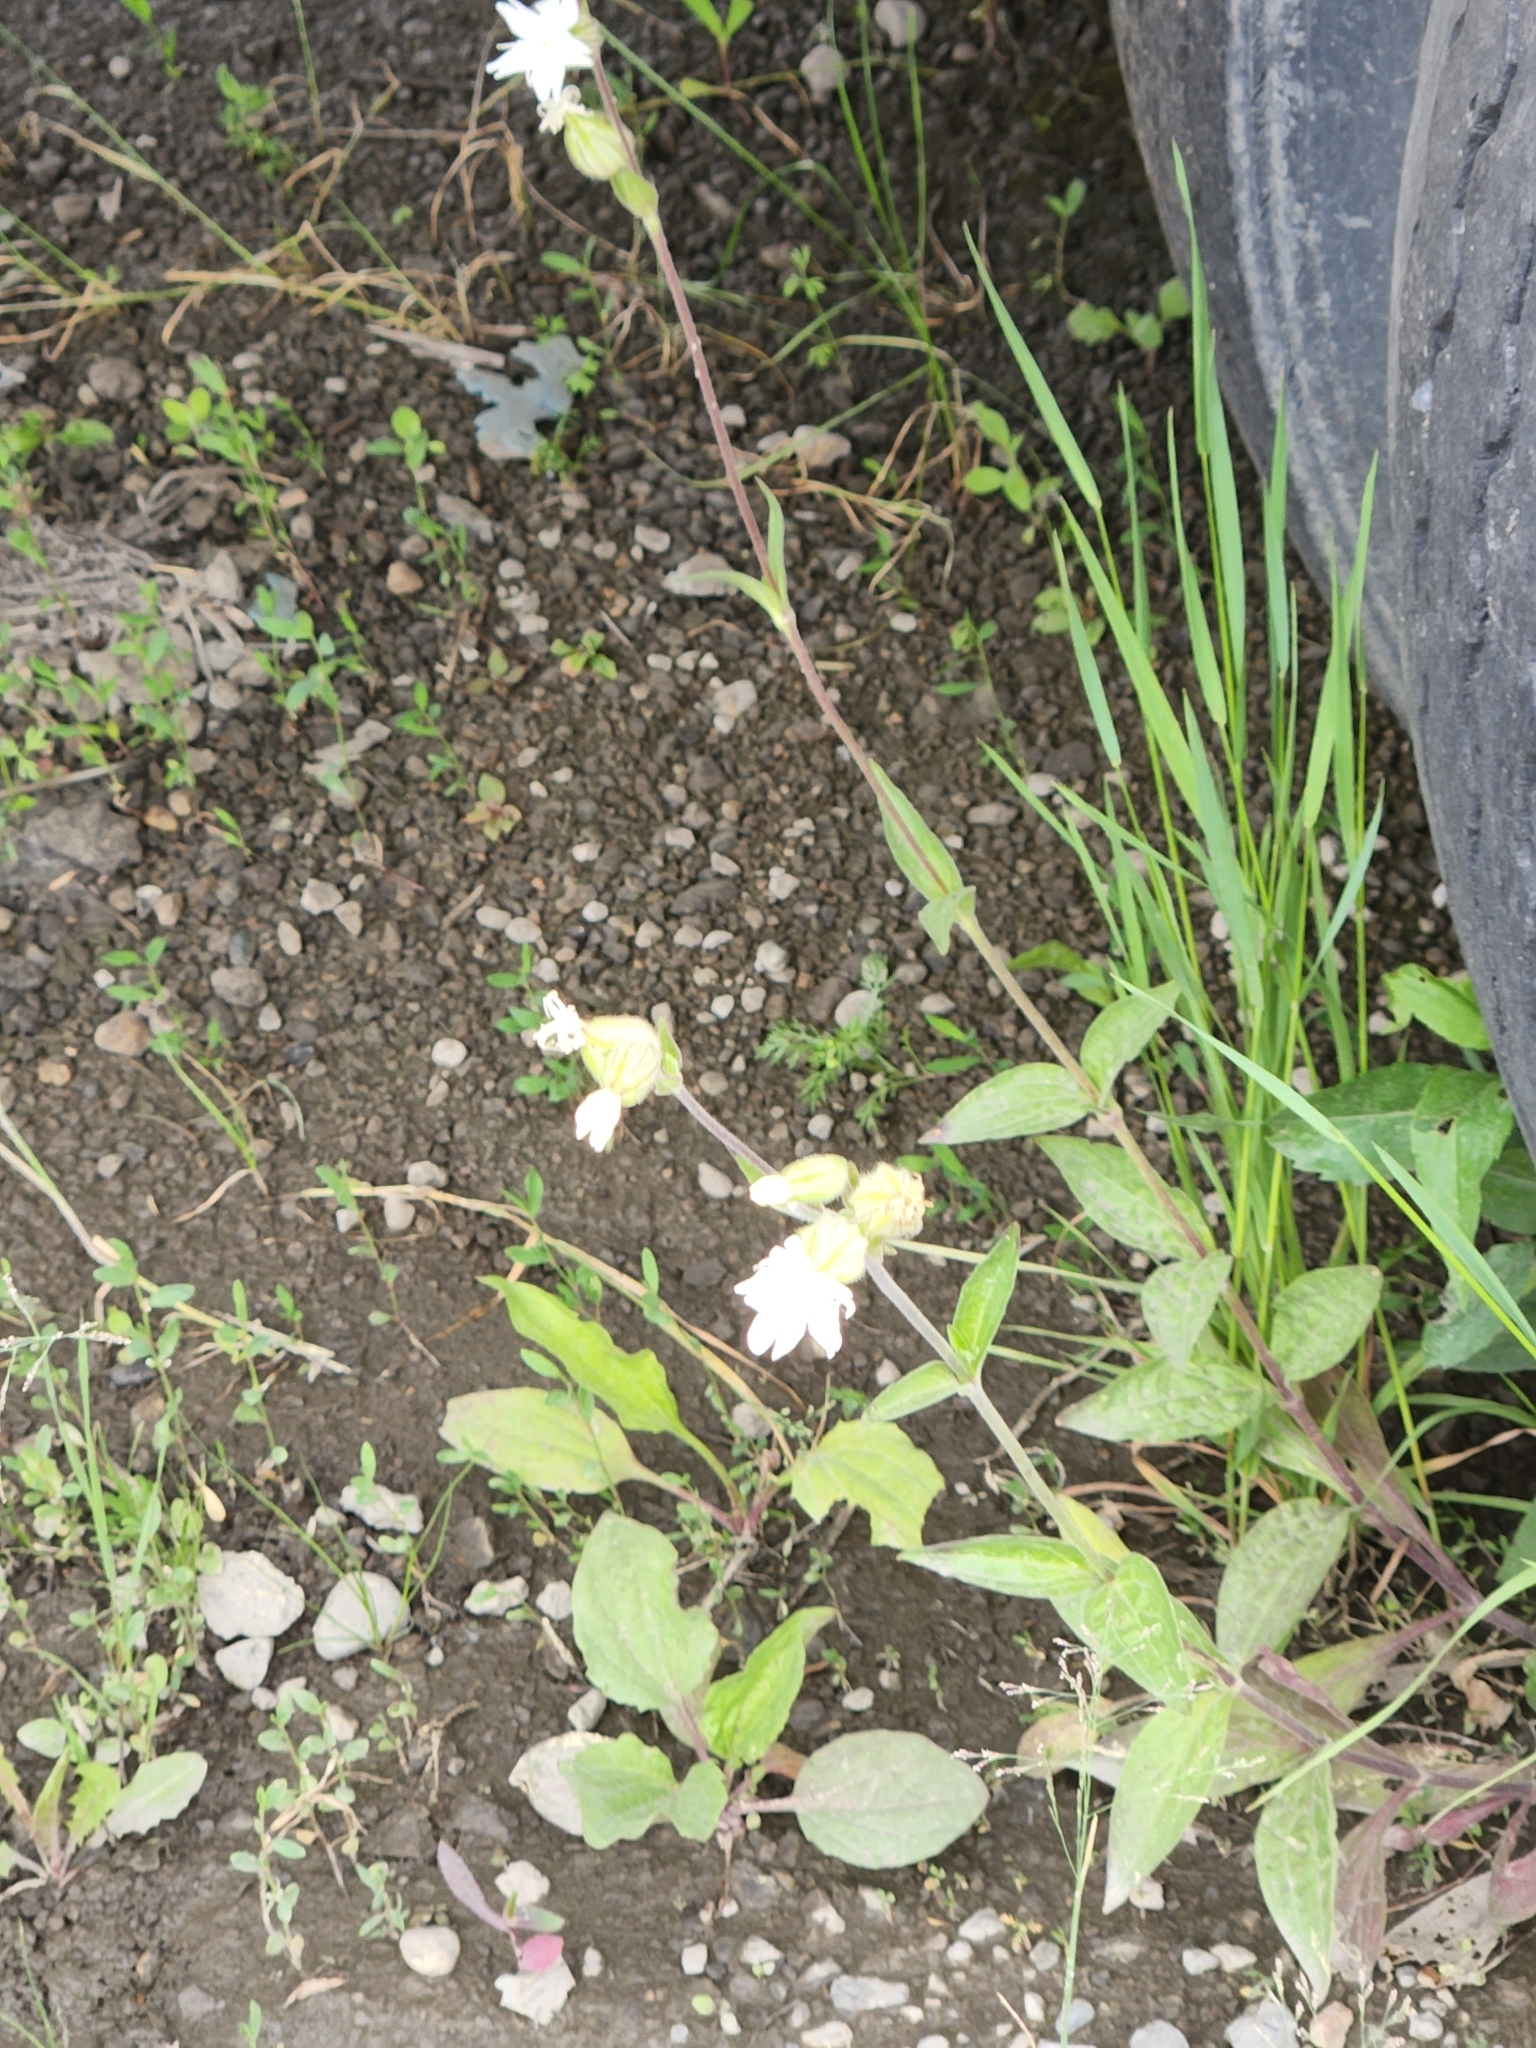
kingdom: Plantae
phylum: Tracheophyta
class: Magnoliopsida
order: Caryophyllales
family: Caryophyllaceae
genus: Silene
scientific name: Silene latifolia
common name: White campion
